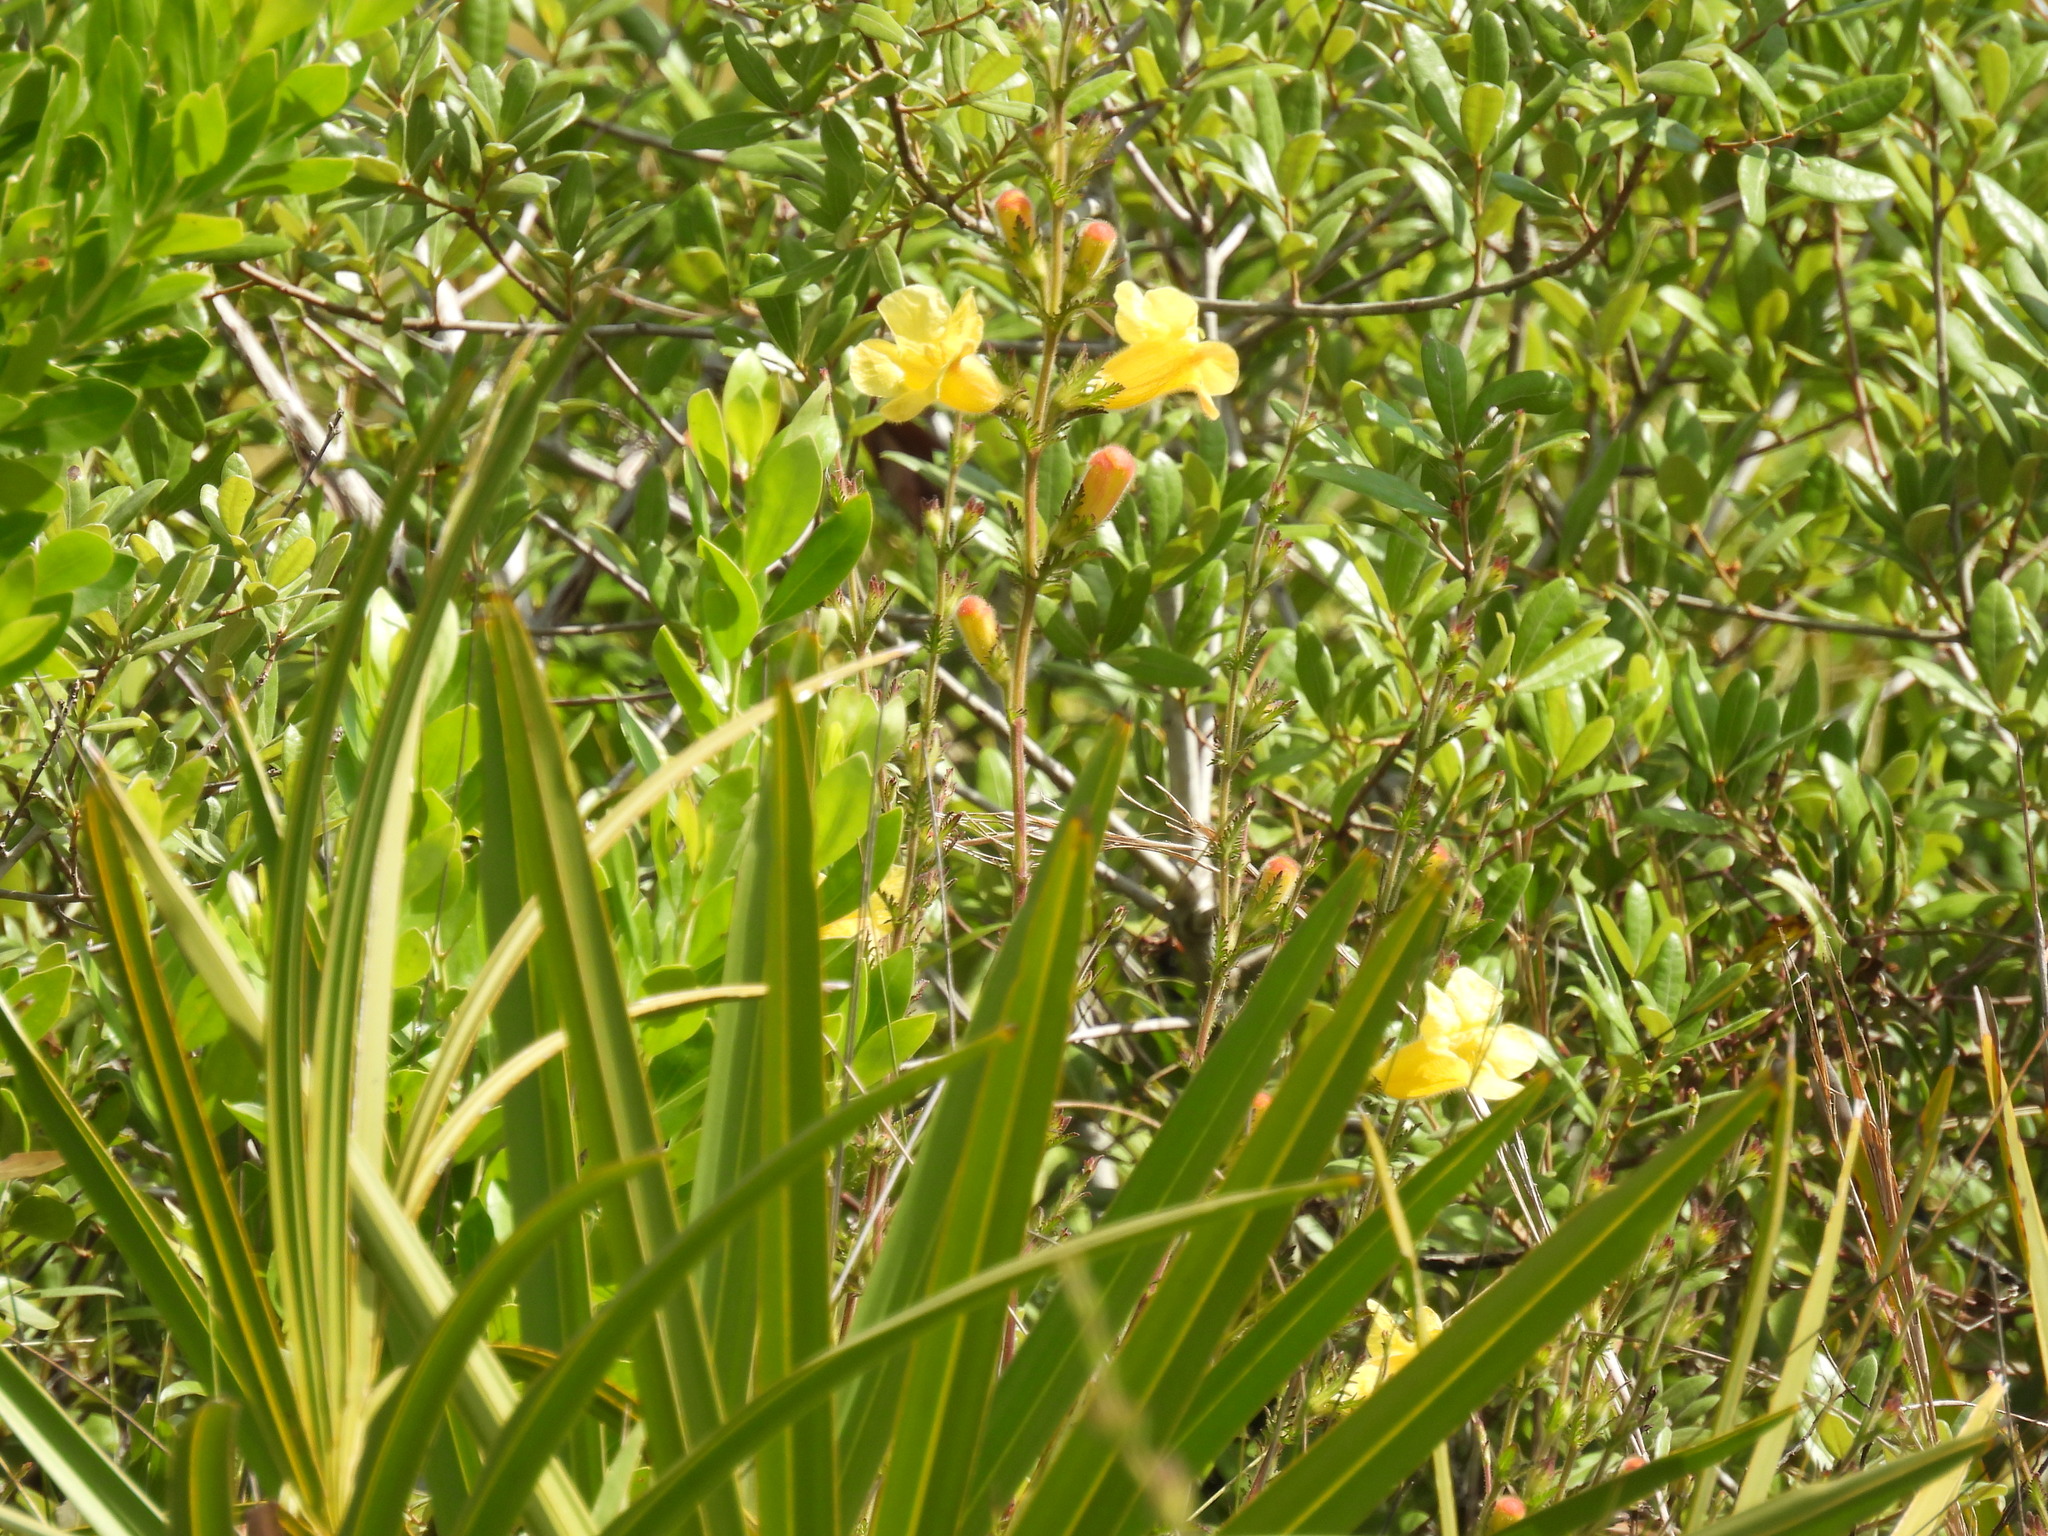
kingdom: Plantae
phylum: Tracheophyta
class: Magnoliopsida
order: Lamiales
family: Orobanchaceae
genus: Aureolaria
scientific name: Aureolaria pectinata
